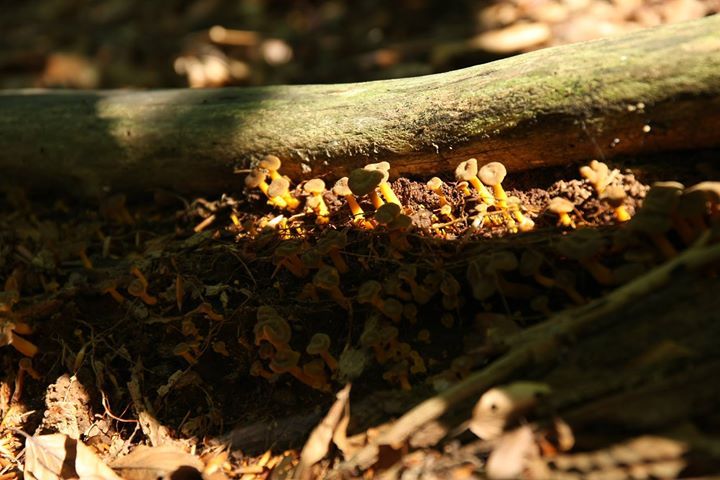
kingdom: Fungi
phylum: Basidiomycota
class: Agaricomycetes
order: Cantharellales
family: Hydnaceae
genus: Craterellus
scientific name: Craterellus tubaeformis
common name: Yellowfoot
